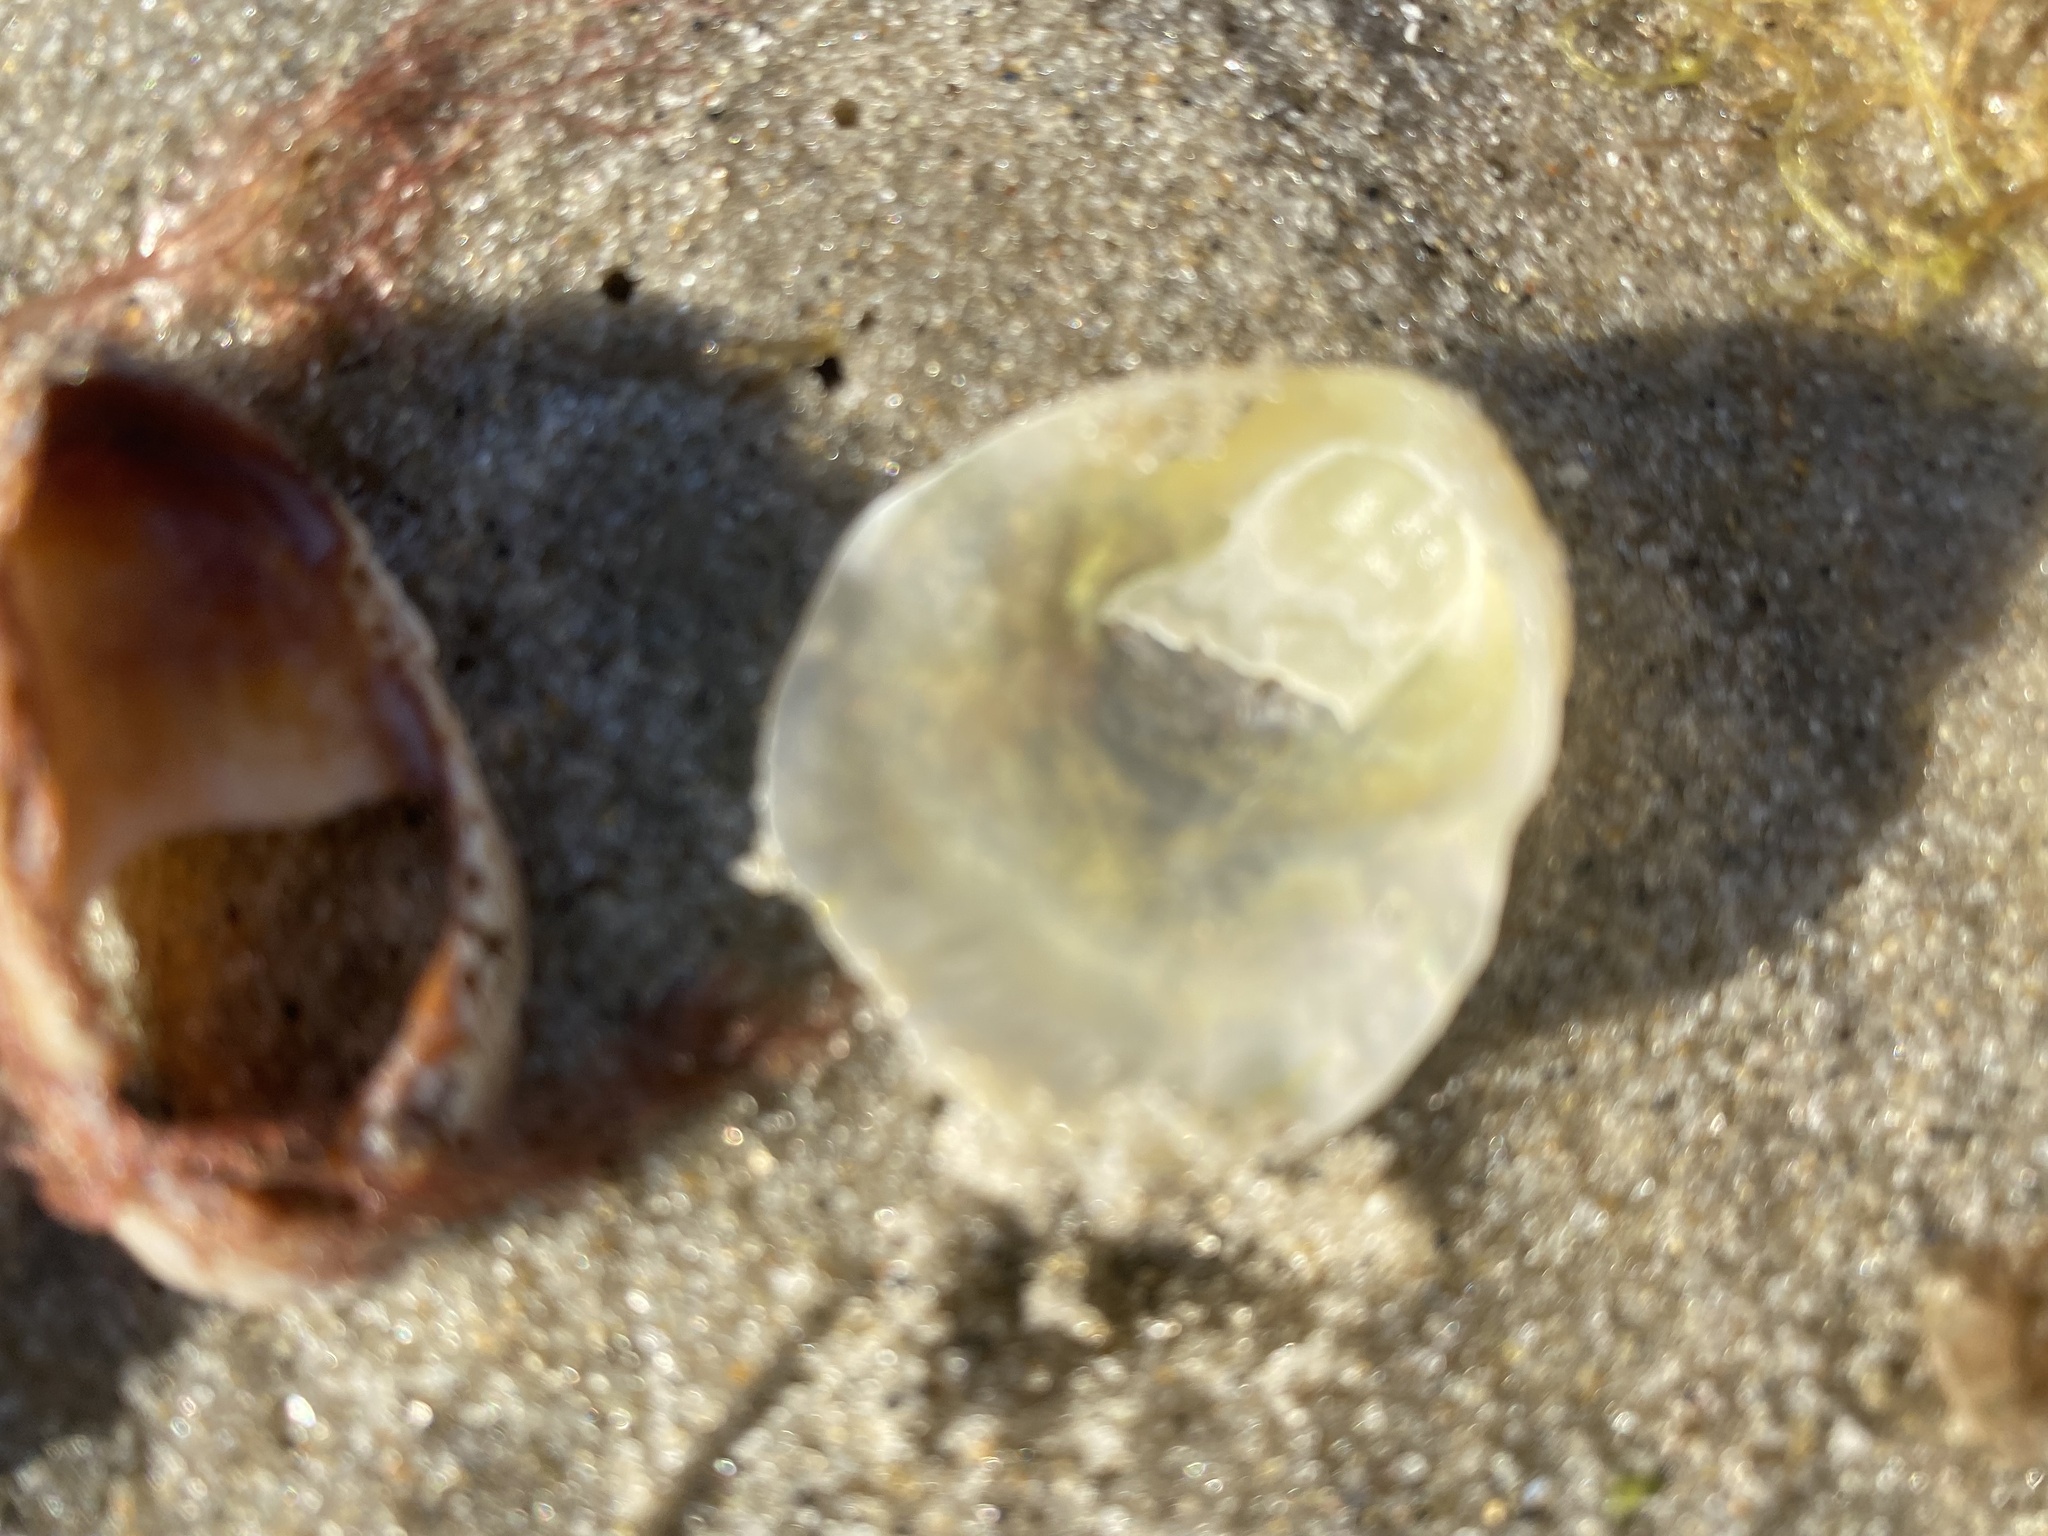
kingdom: Animalia
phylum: Mollusca
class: Bivalvia
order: Pectinida
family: Anomiidae
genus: Anomia
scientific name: Anomia simplex
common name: Common jingle shell
